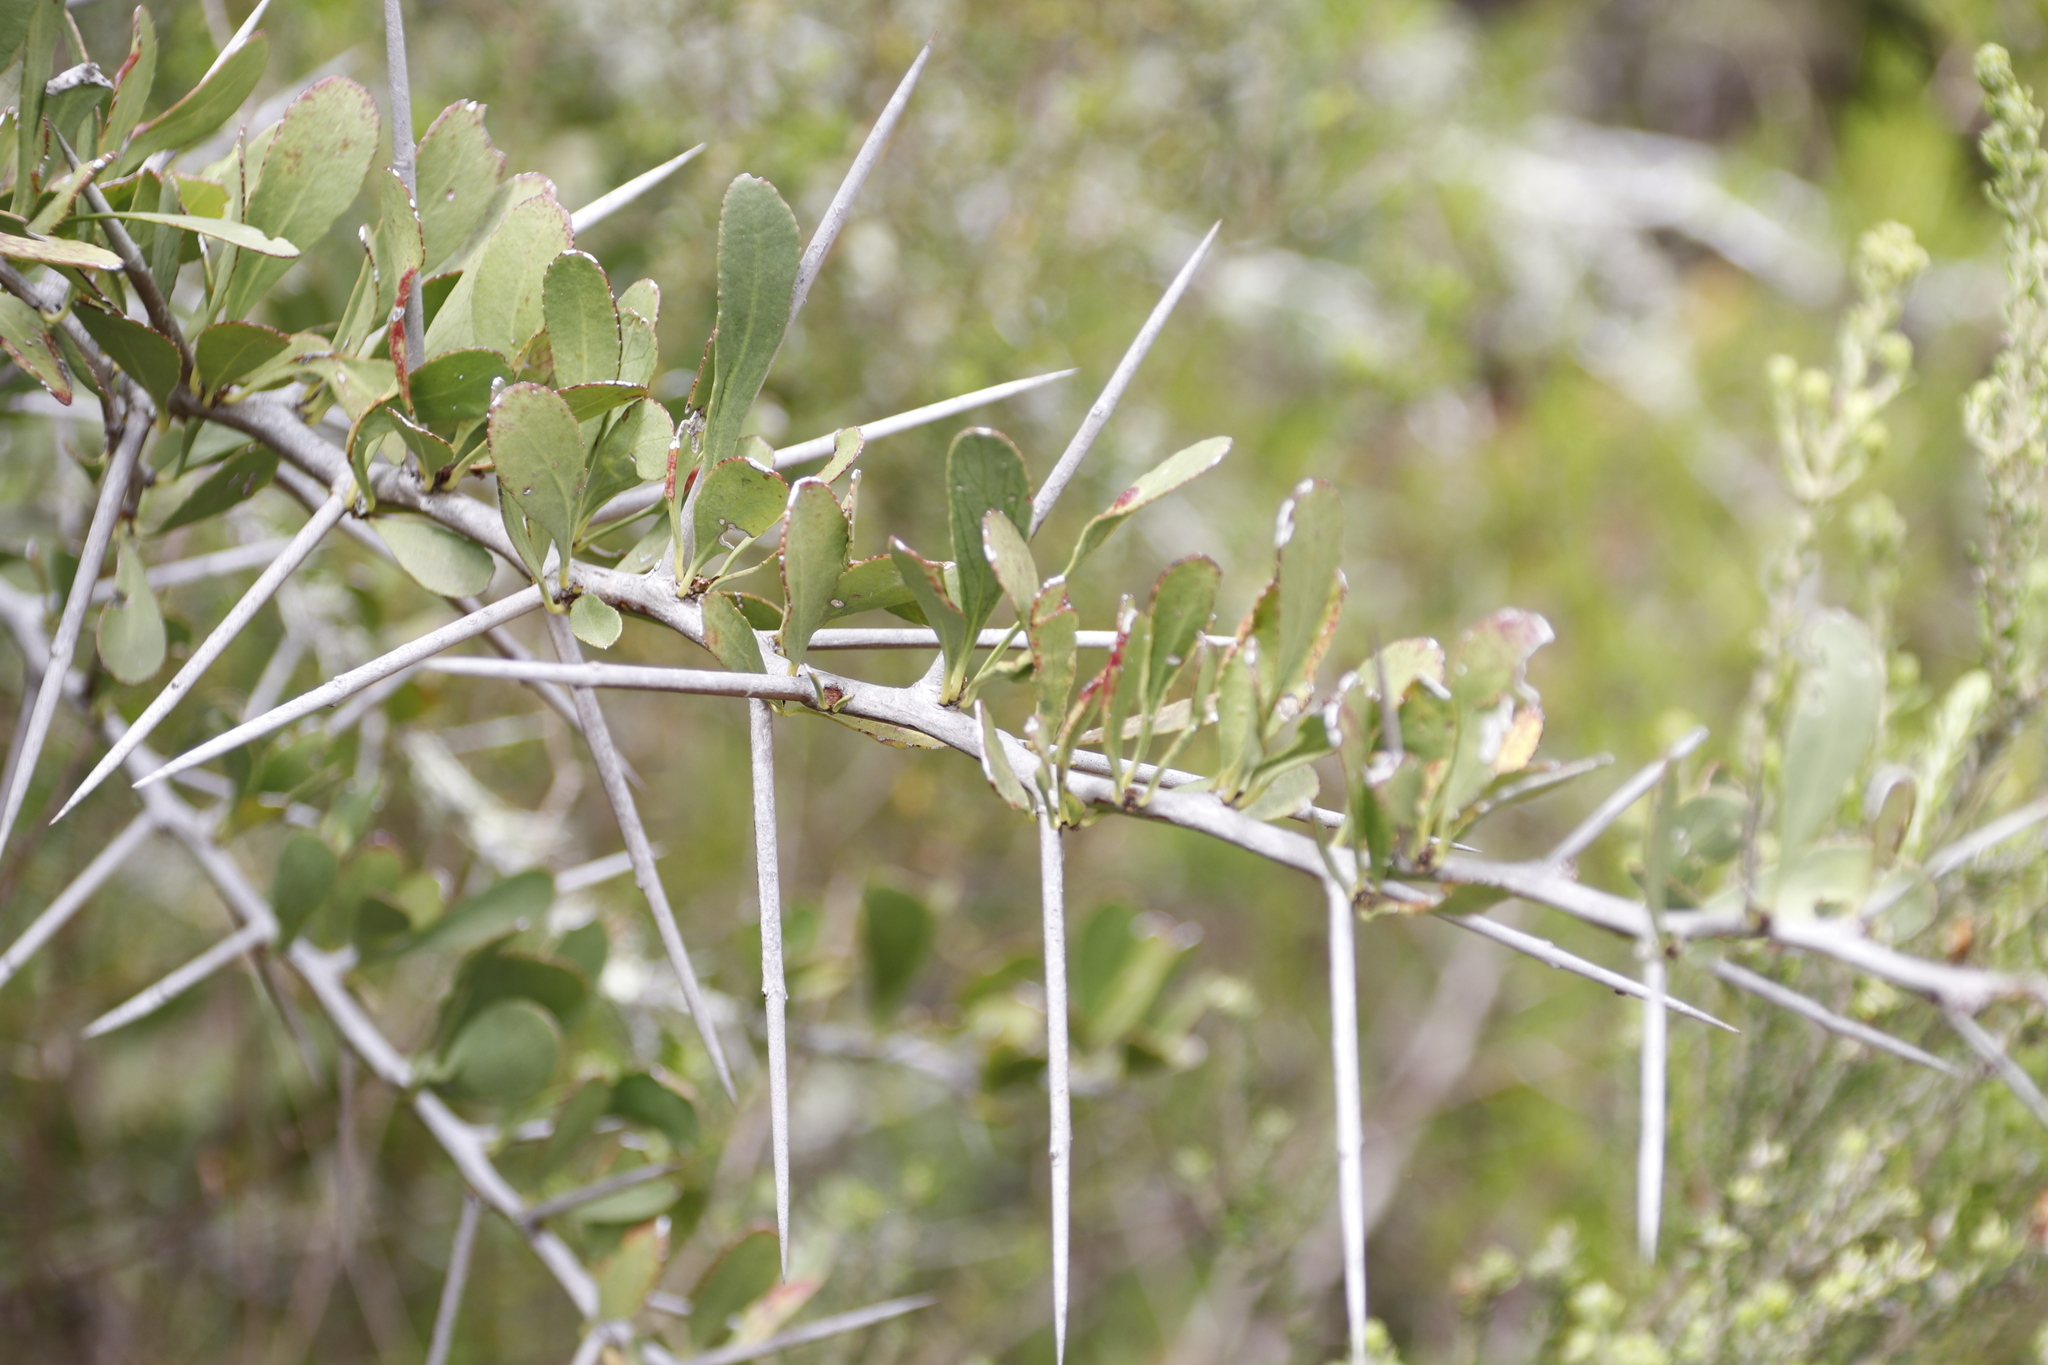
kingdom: Plantae
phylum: Tracheophyta
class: Magnoliopsida
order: Celastrales
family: Celastraceae
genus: Gymnosporia
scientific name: Gymnosporia buxifolia
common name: Common spike-thorn
